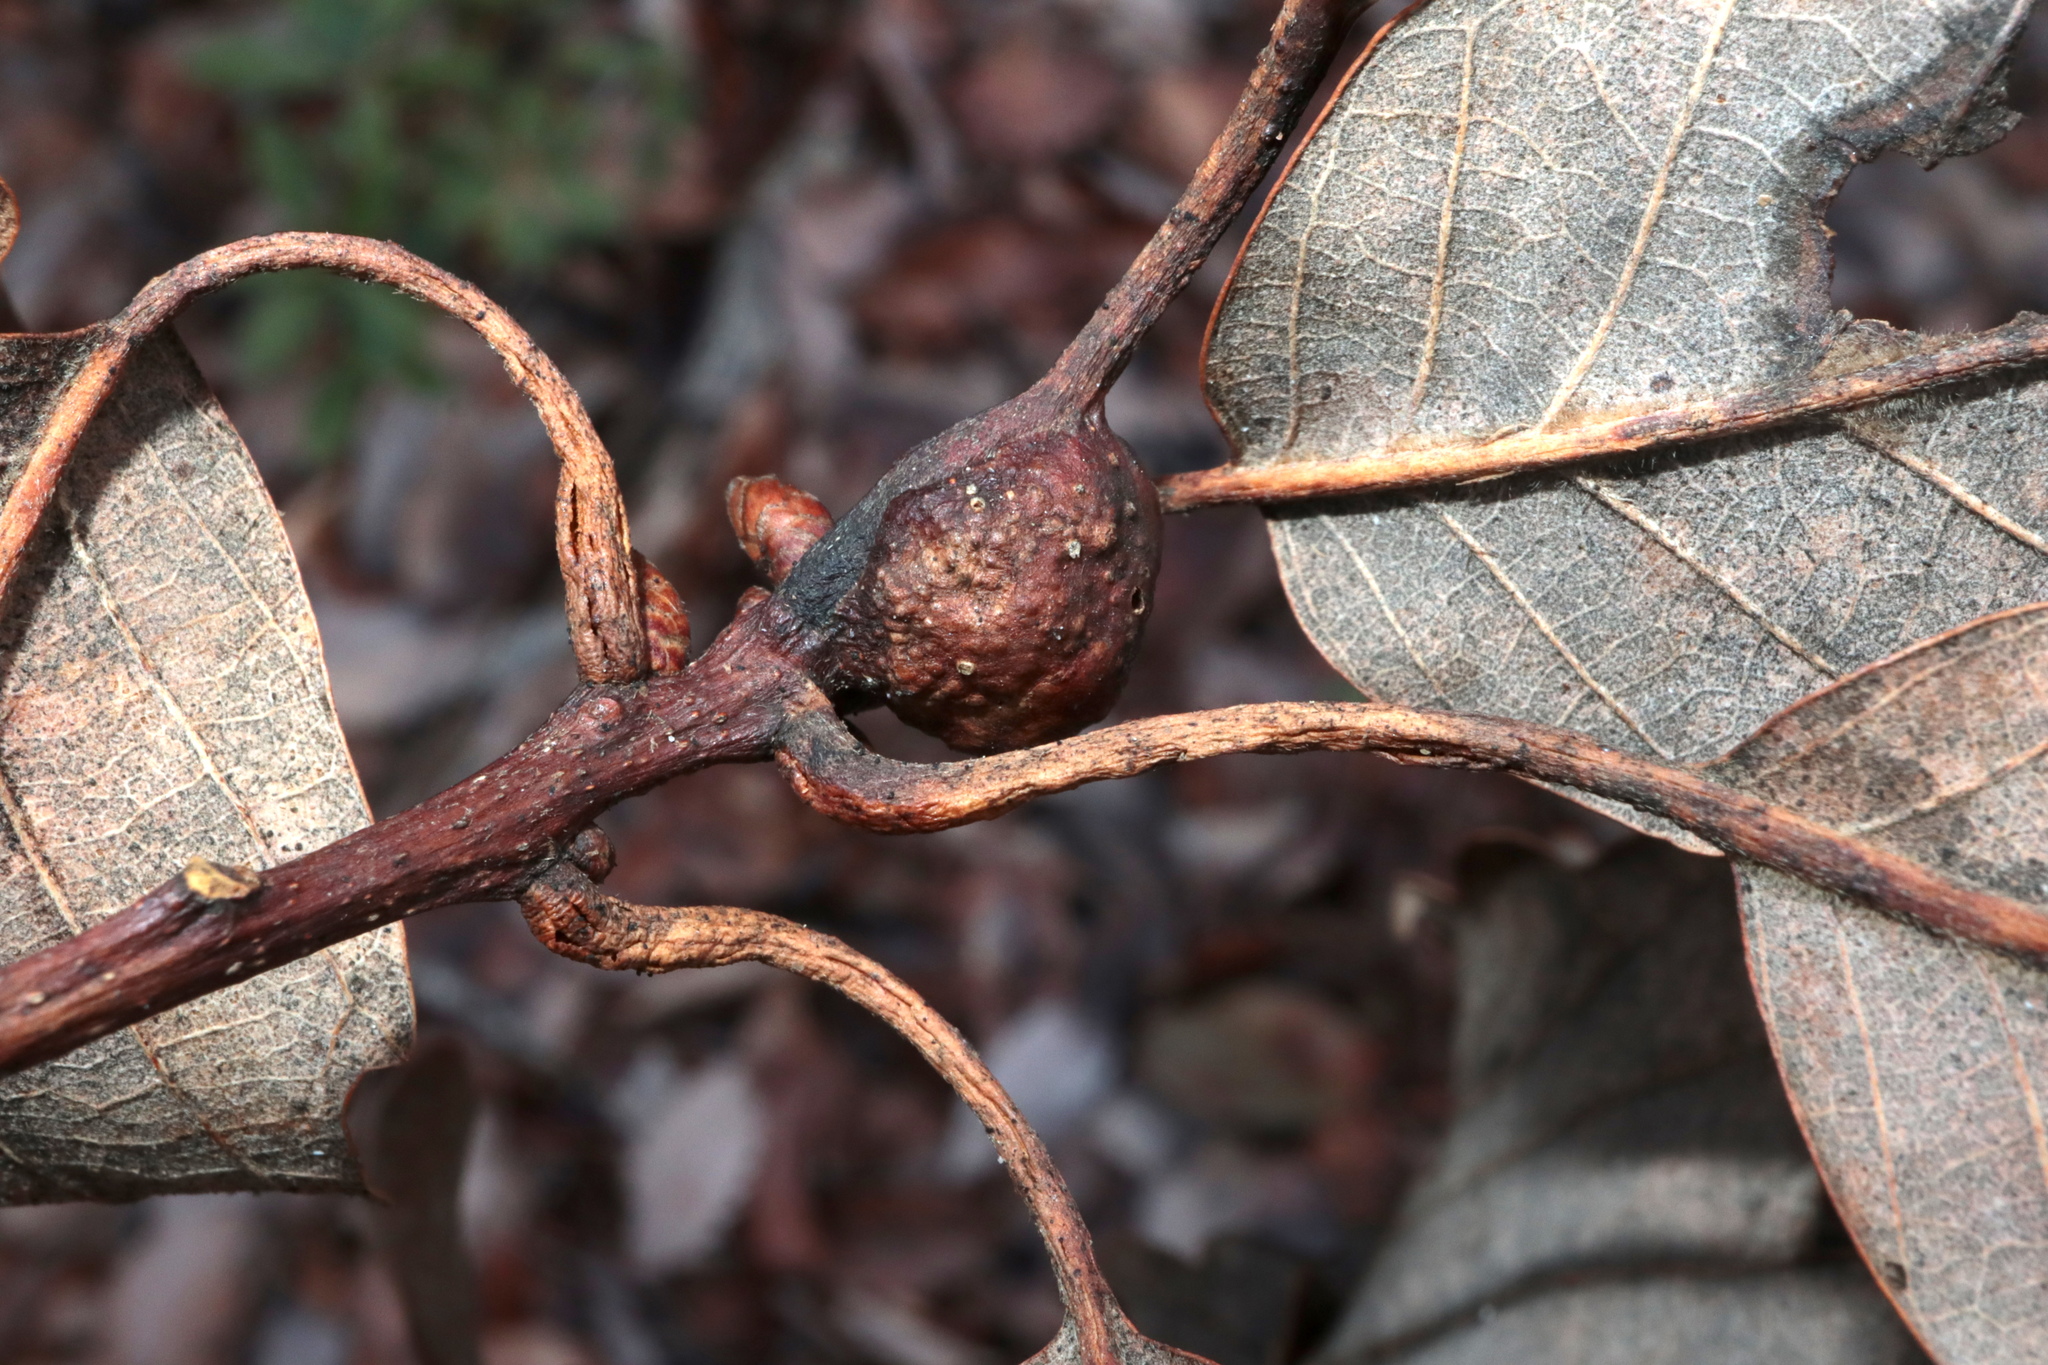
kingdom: Animalia
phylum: Arthropoda
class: Insecta
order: Hymenoptera
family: Cynipidae
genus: Andricus
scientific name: Andricus
